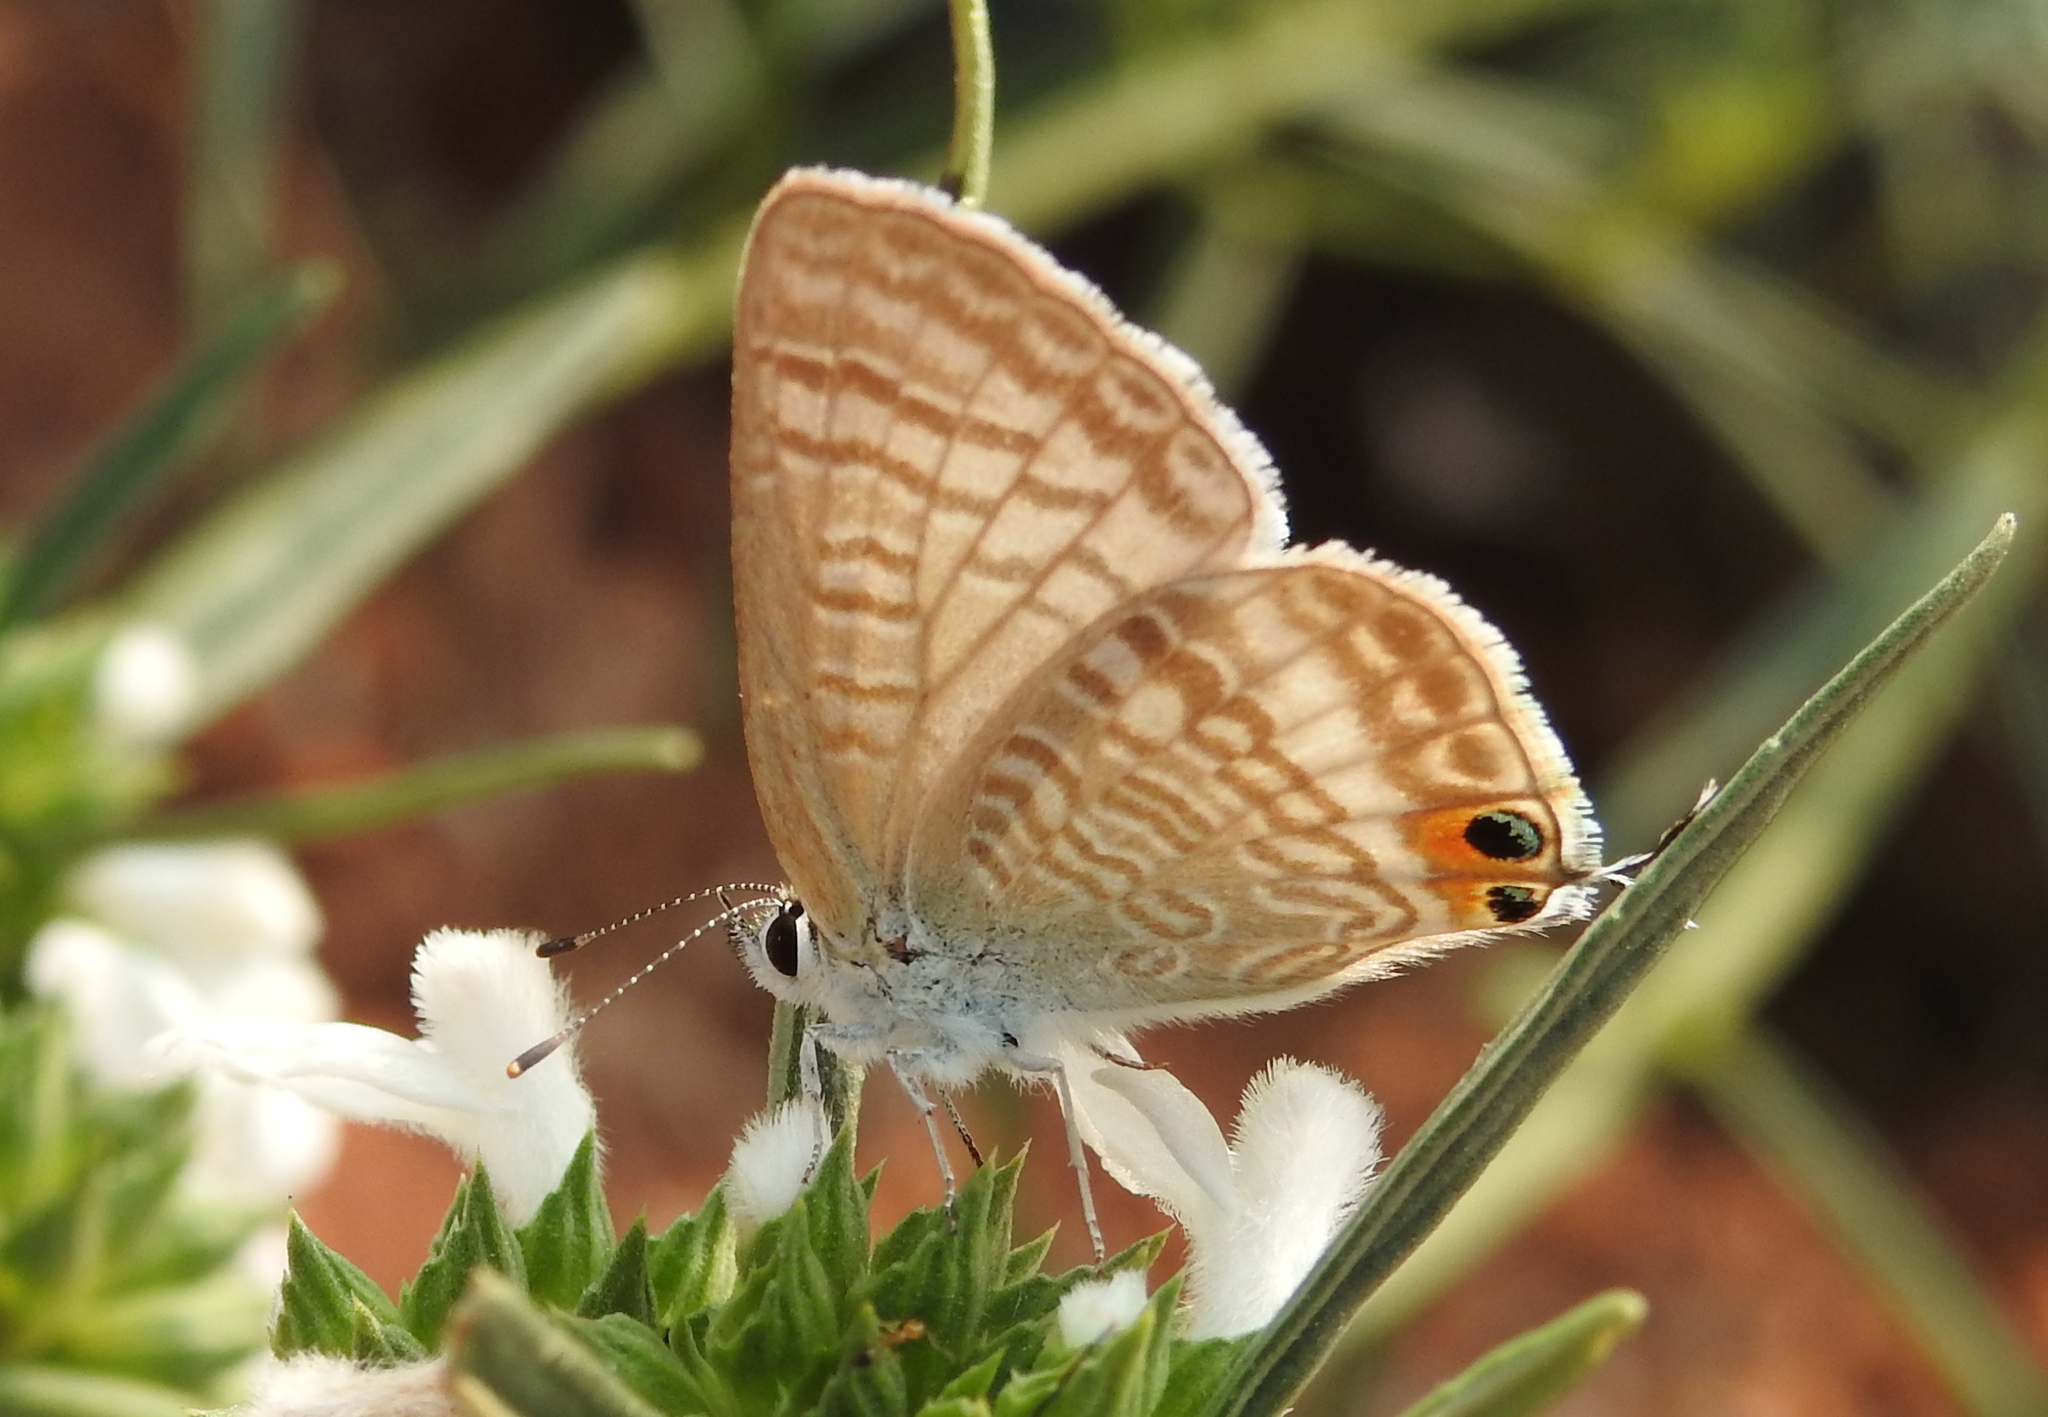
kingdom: Animalia
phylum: Arthropoda
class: Insecta
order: Lepidoptera
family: Lycaenidae
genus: Lampides
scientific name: Lampides boeticus
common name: Long-tailed blue
